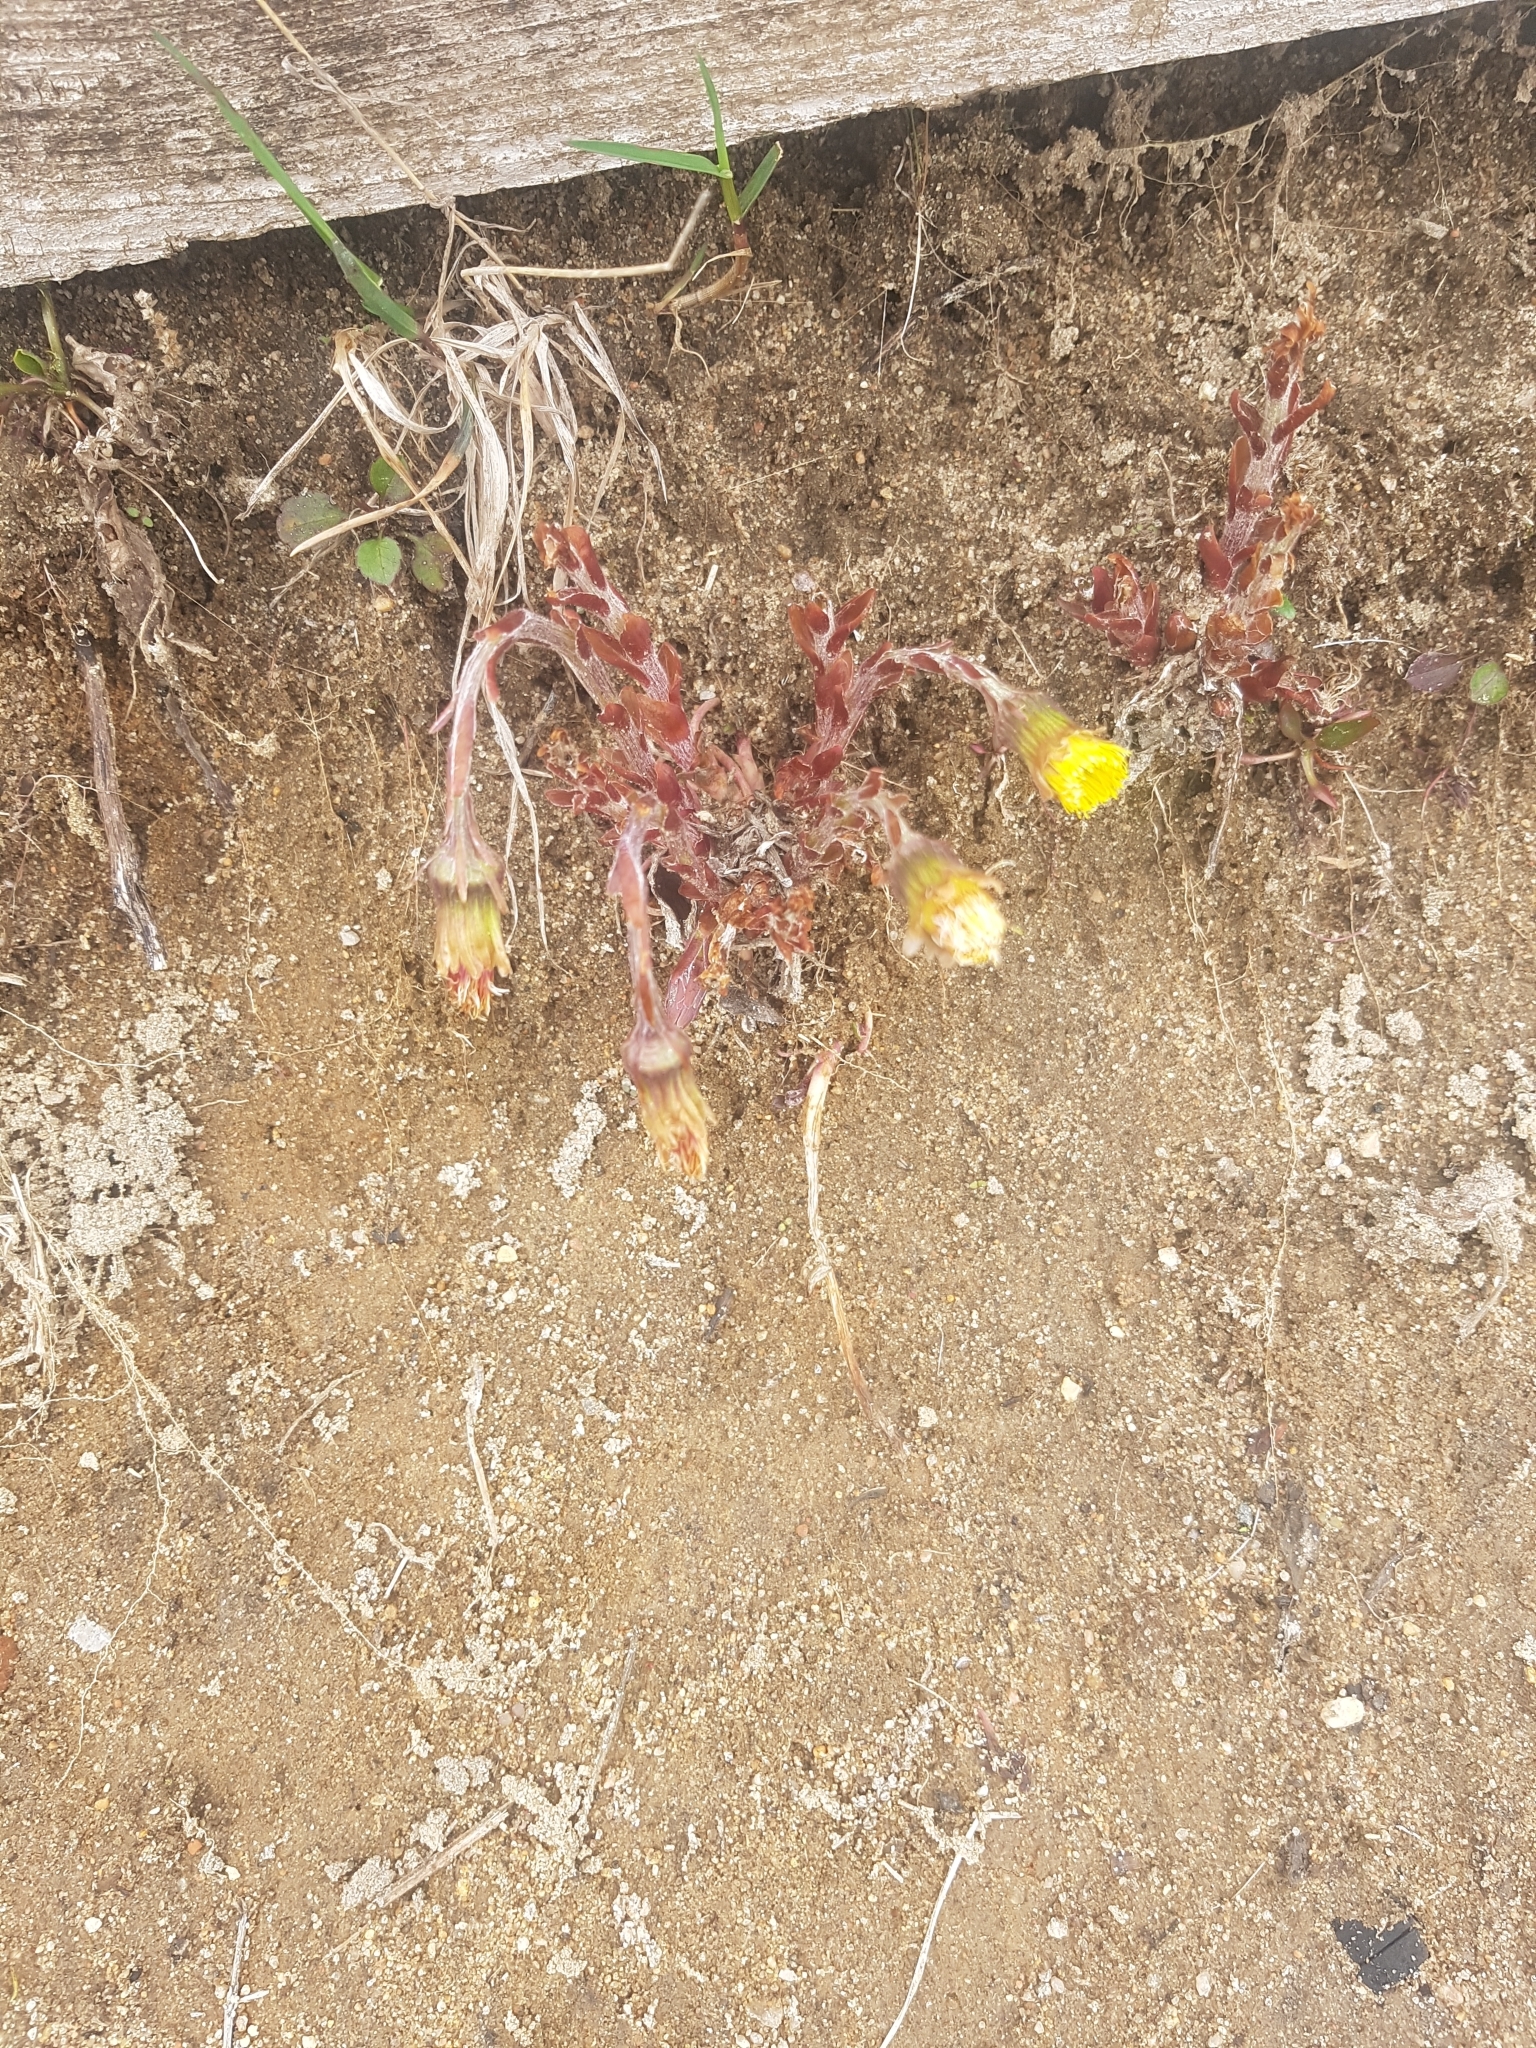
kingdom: Plantae
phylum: Tracheophyta
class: Magnoliopsida
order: Asterales
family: Asteraceae
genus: Tussilago
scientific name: Tussilago farfara
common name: Coltsfoot
